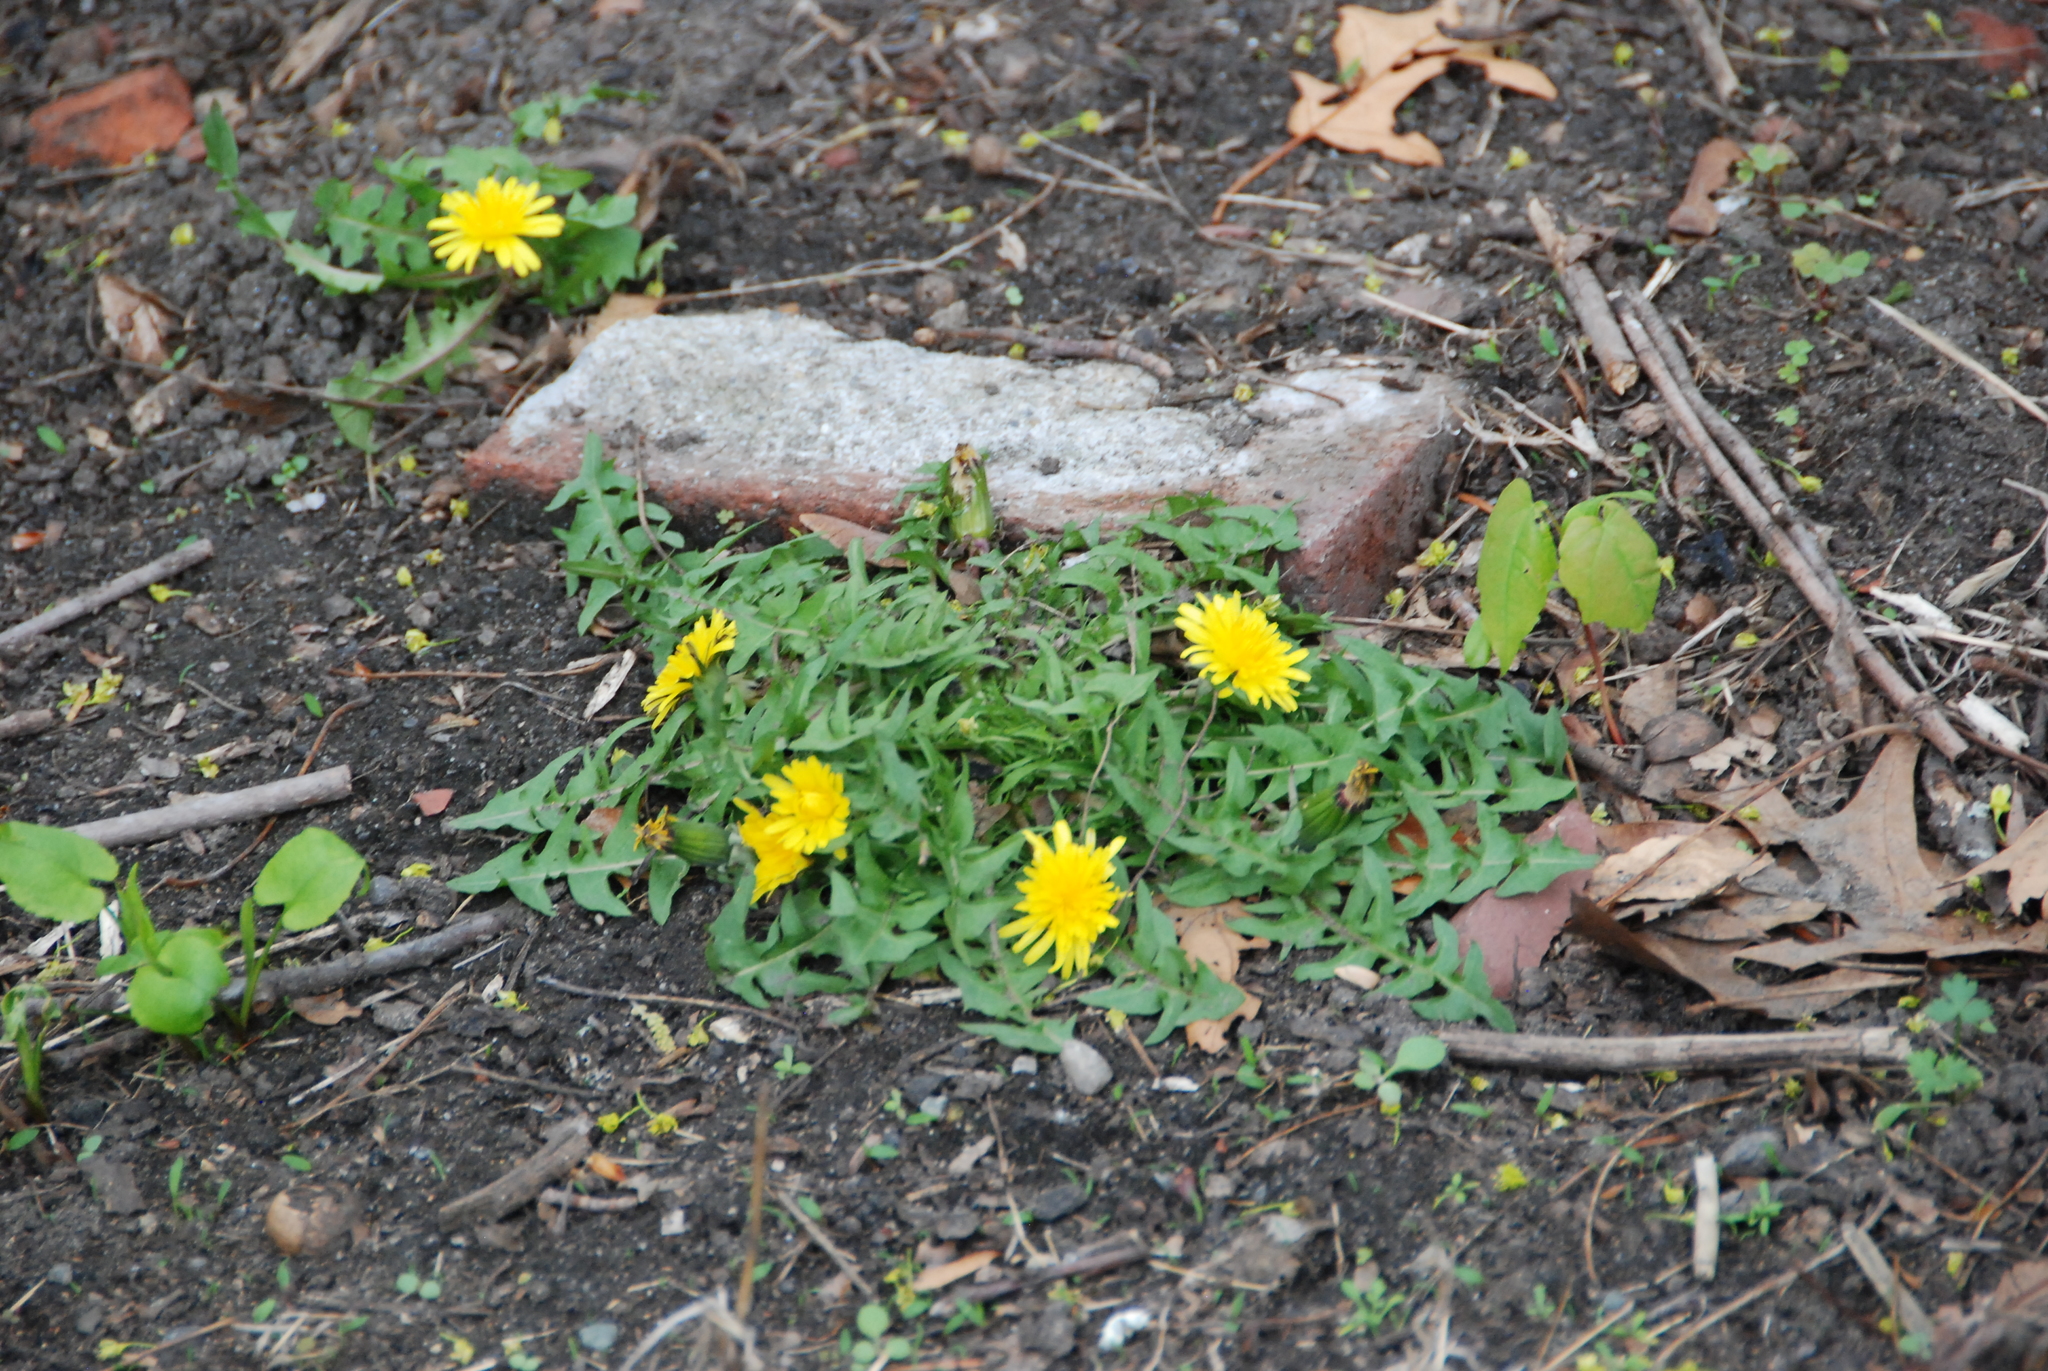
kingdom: Plantae
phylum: Tracheophyta
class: Magnoliopsida
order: Asterales
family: Asteraceae
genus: Taraxacum
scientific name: Taraxacum officinale
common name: Common dandelion
